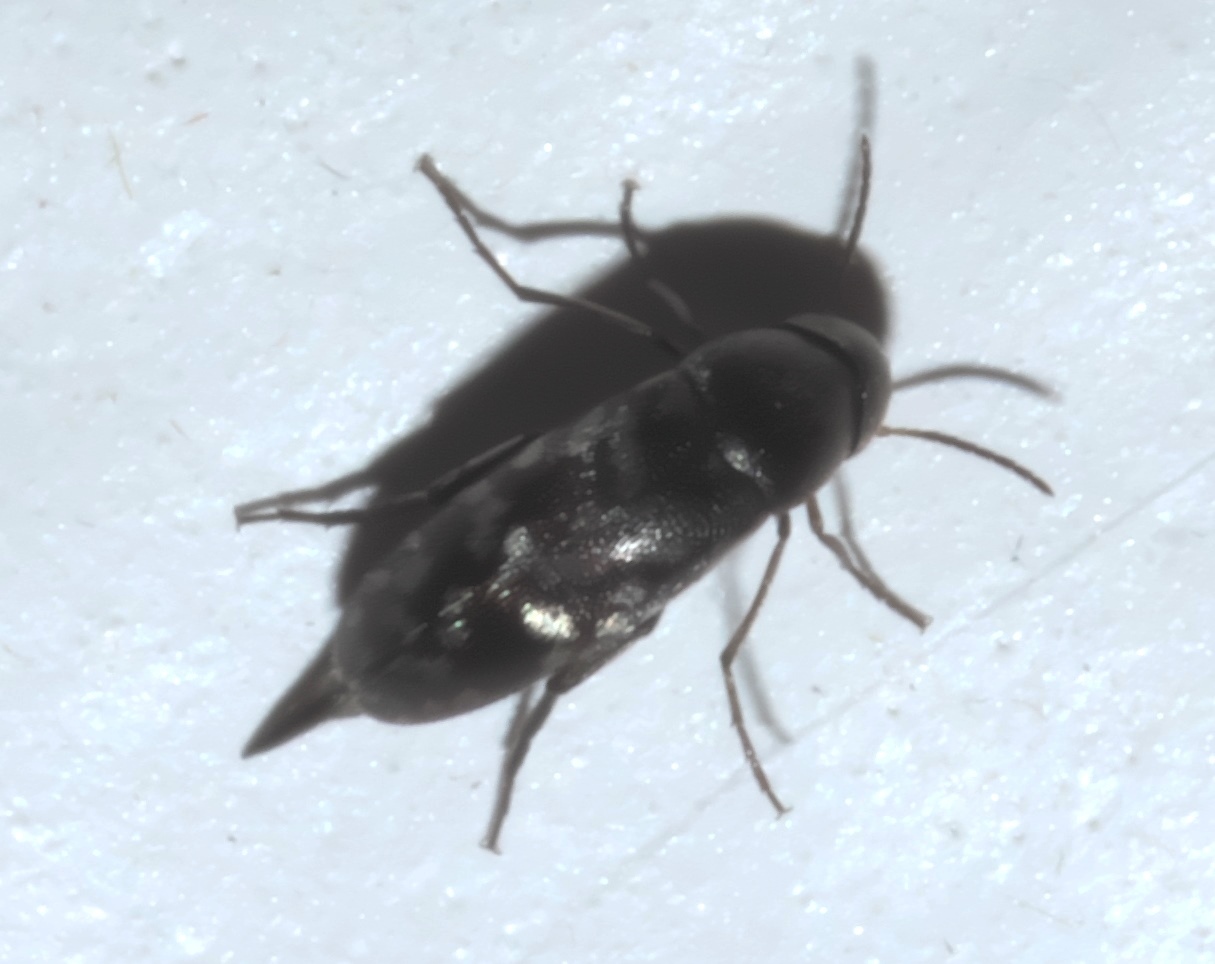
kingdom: Animalia
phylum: Arthropoda
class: Insecta
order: Coleoptera
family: Mordellidae
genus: Mordellina
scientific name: Mordellina pustulata
